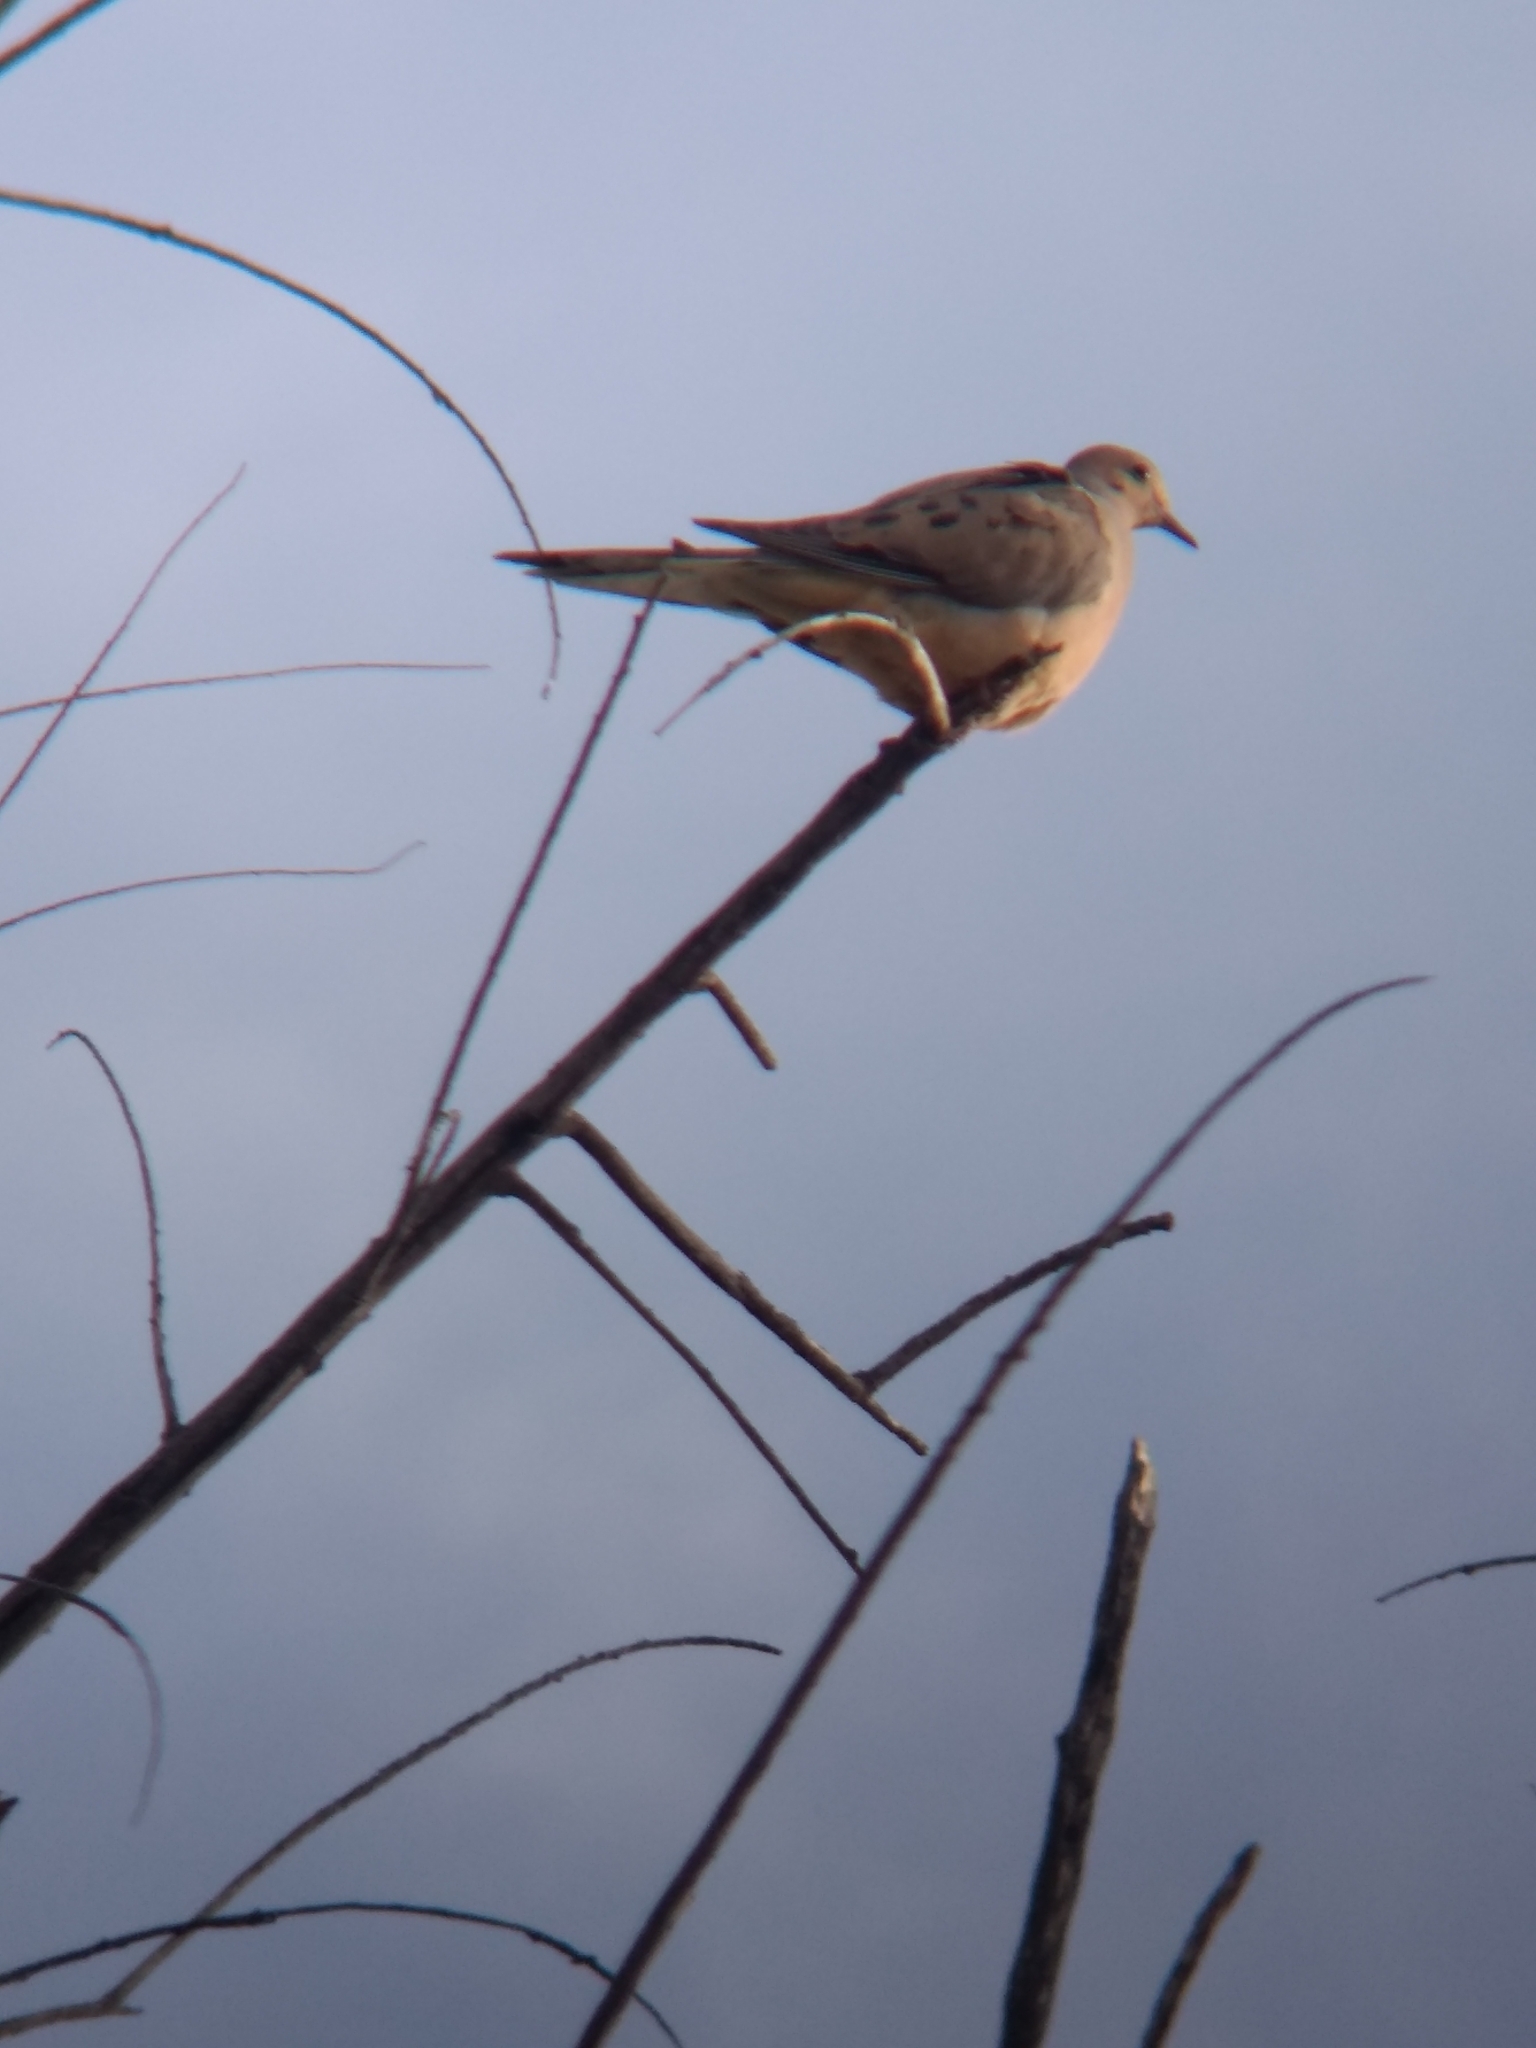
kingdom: Animalia
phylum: Chordata
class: Aves
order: Columbiformes
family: Columbidae
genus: Zenaida
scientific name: Zenaida macroura
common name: Mourning dove
